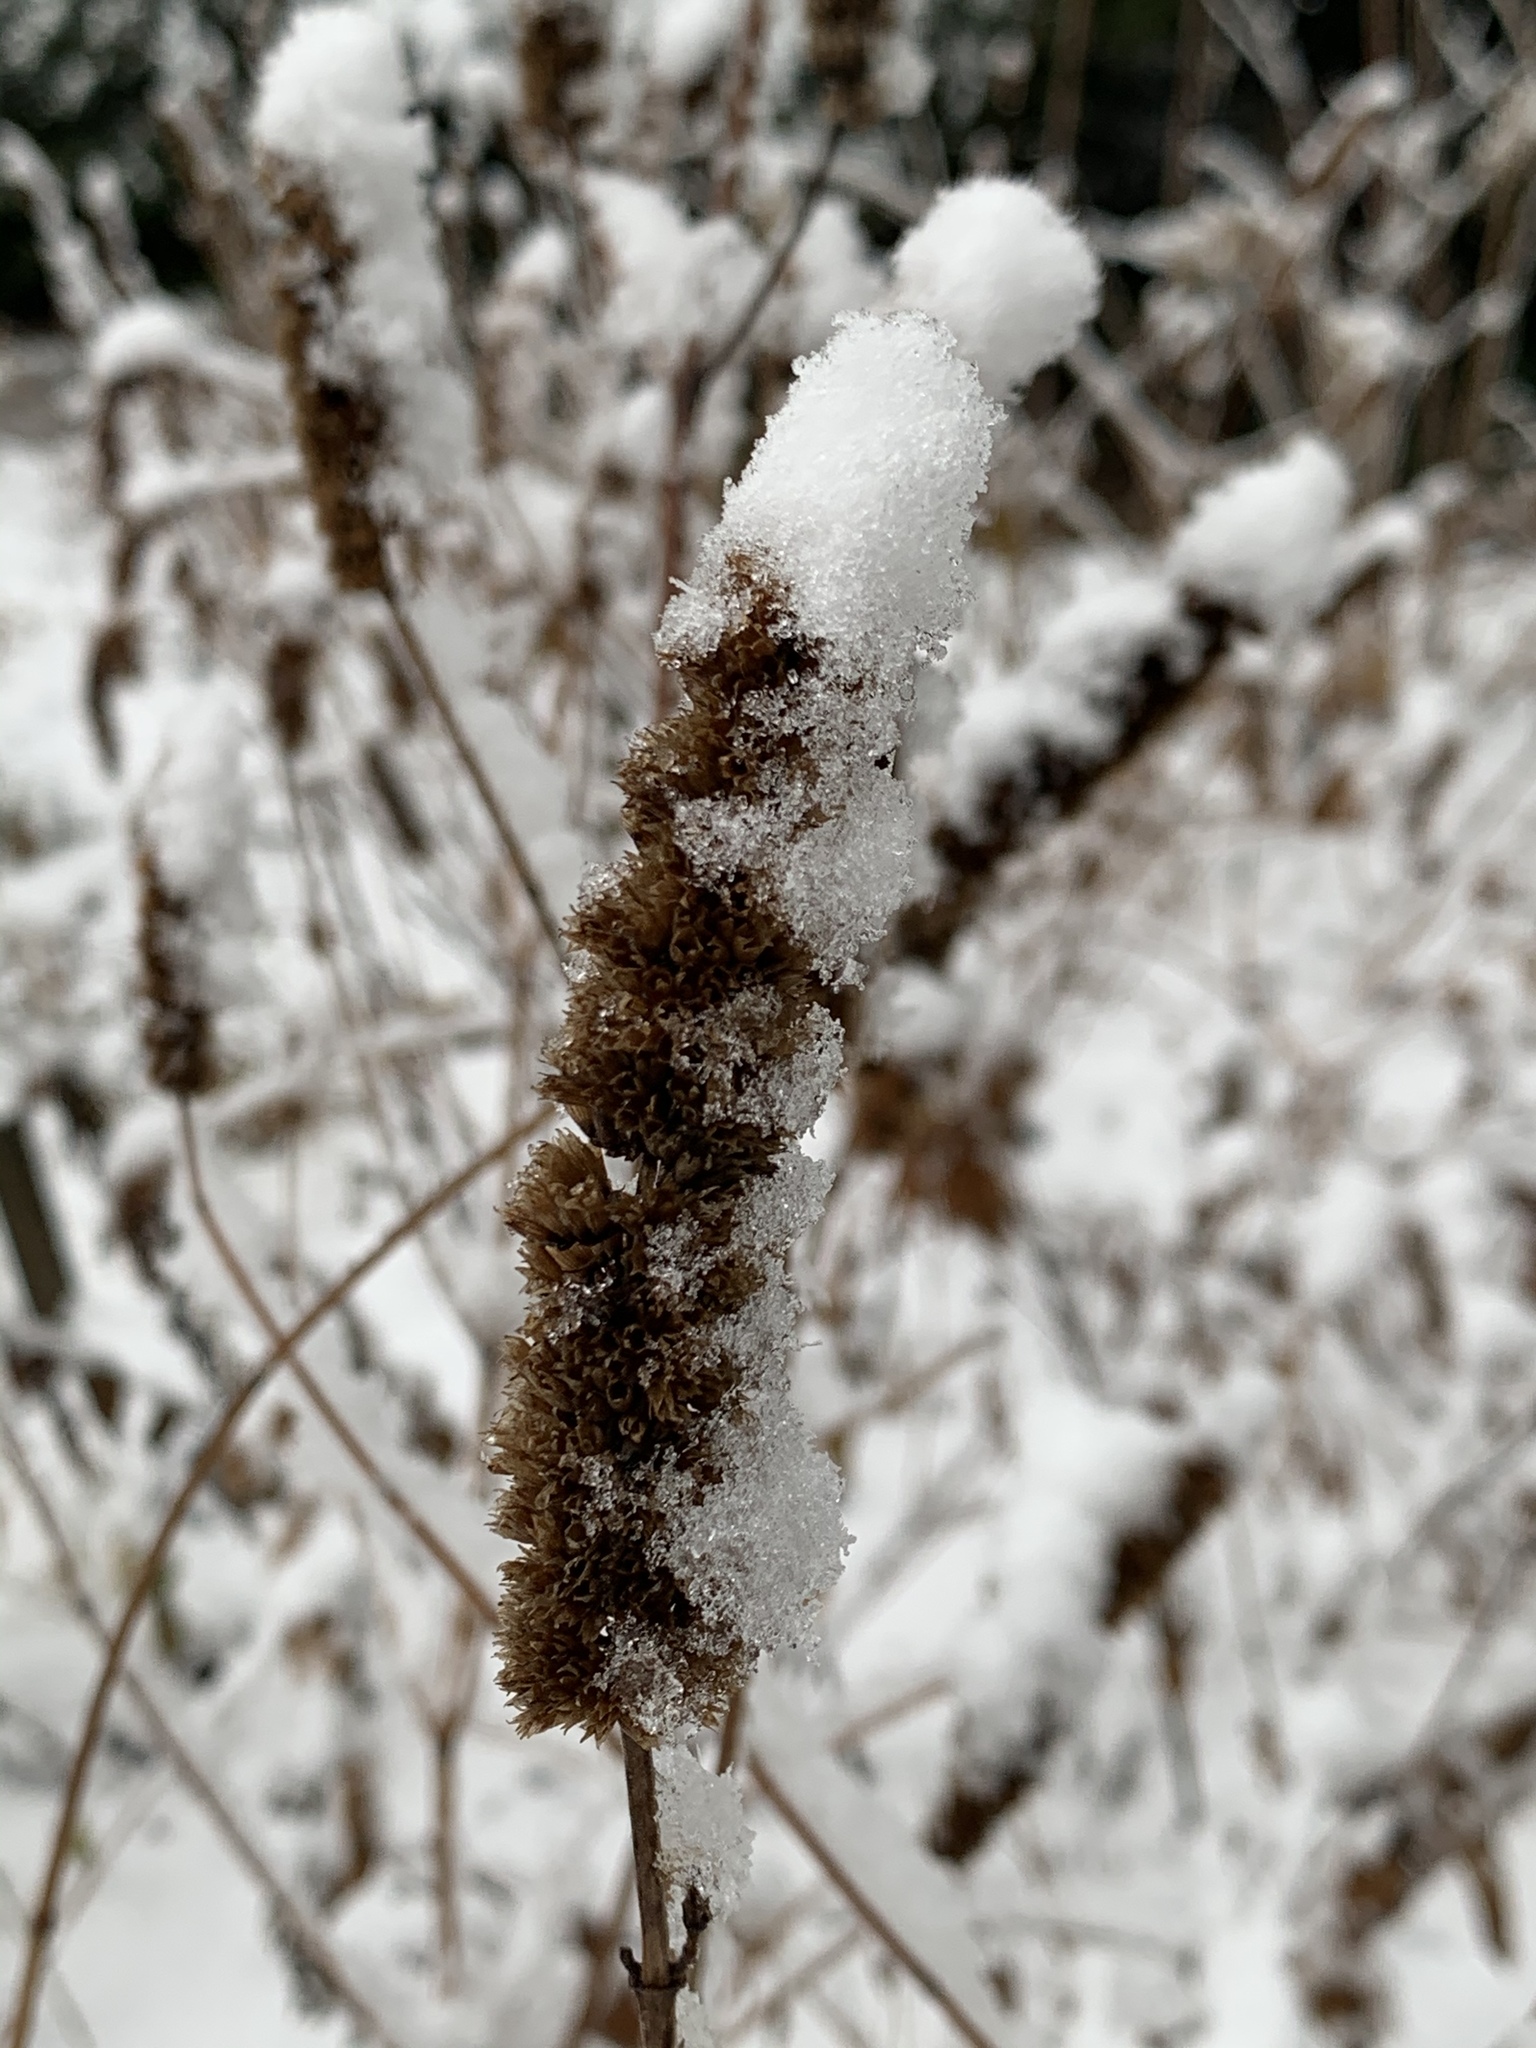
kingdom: Plantae
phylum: Tracheophyta
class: Magnoliopsida
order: Lamiales
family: Lamiaceae
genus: Agastache
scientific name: Agastache foeniculum
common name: Anise hyssop
